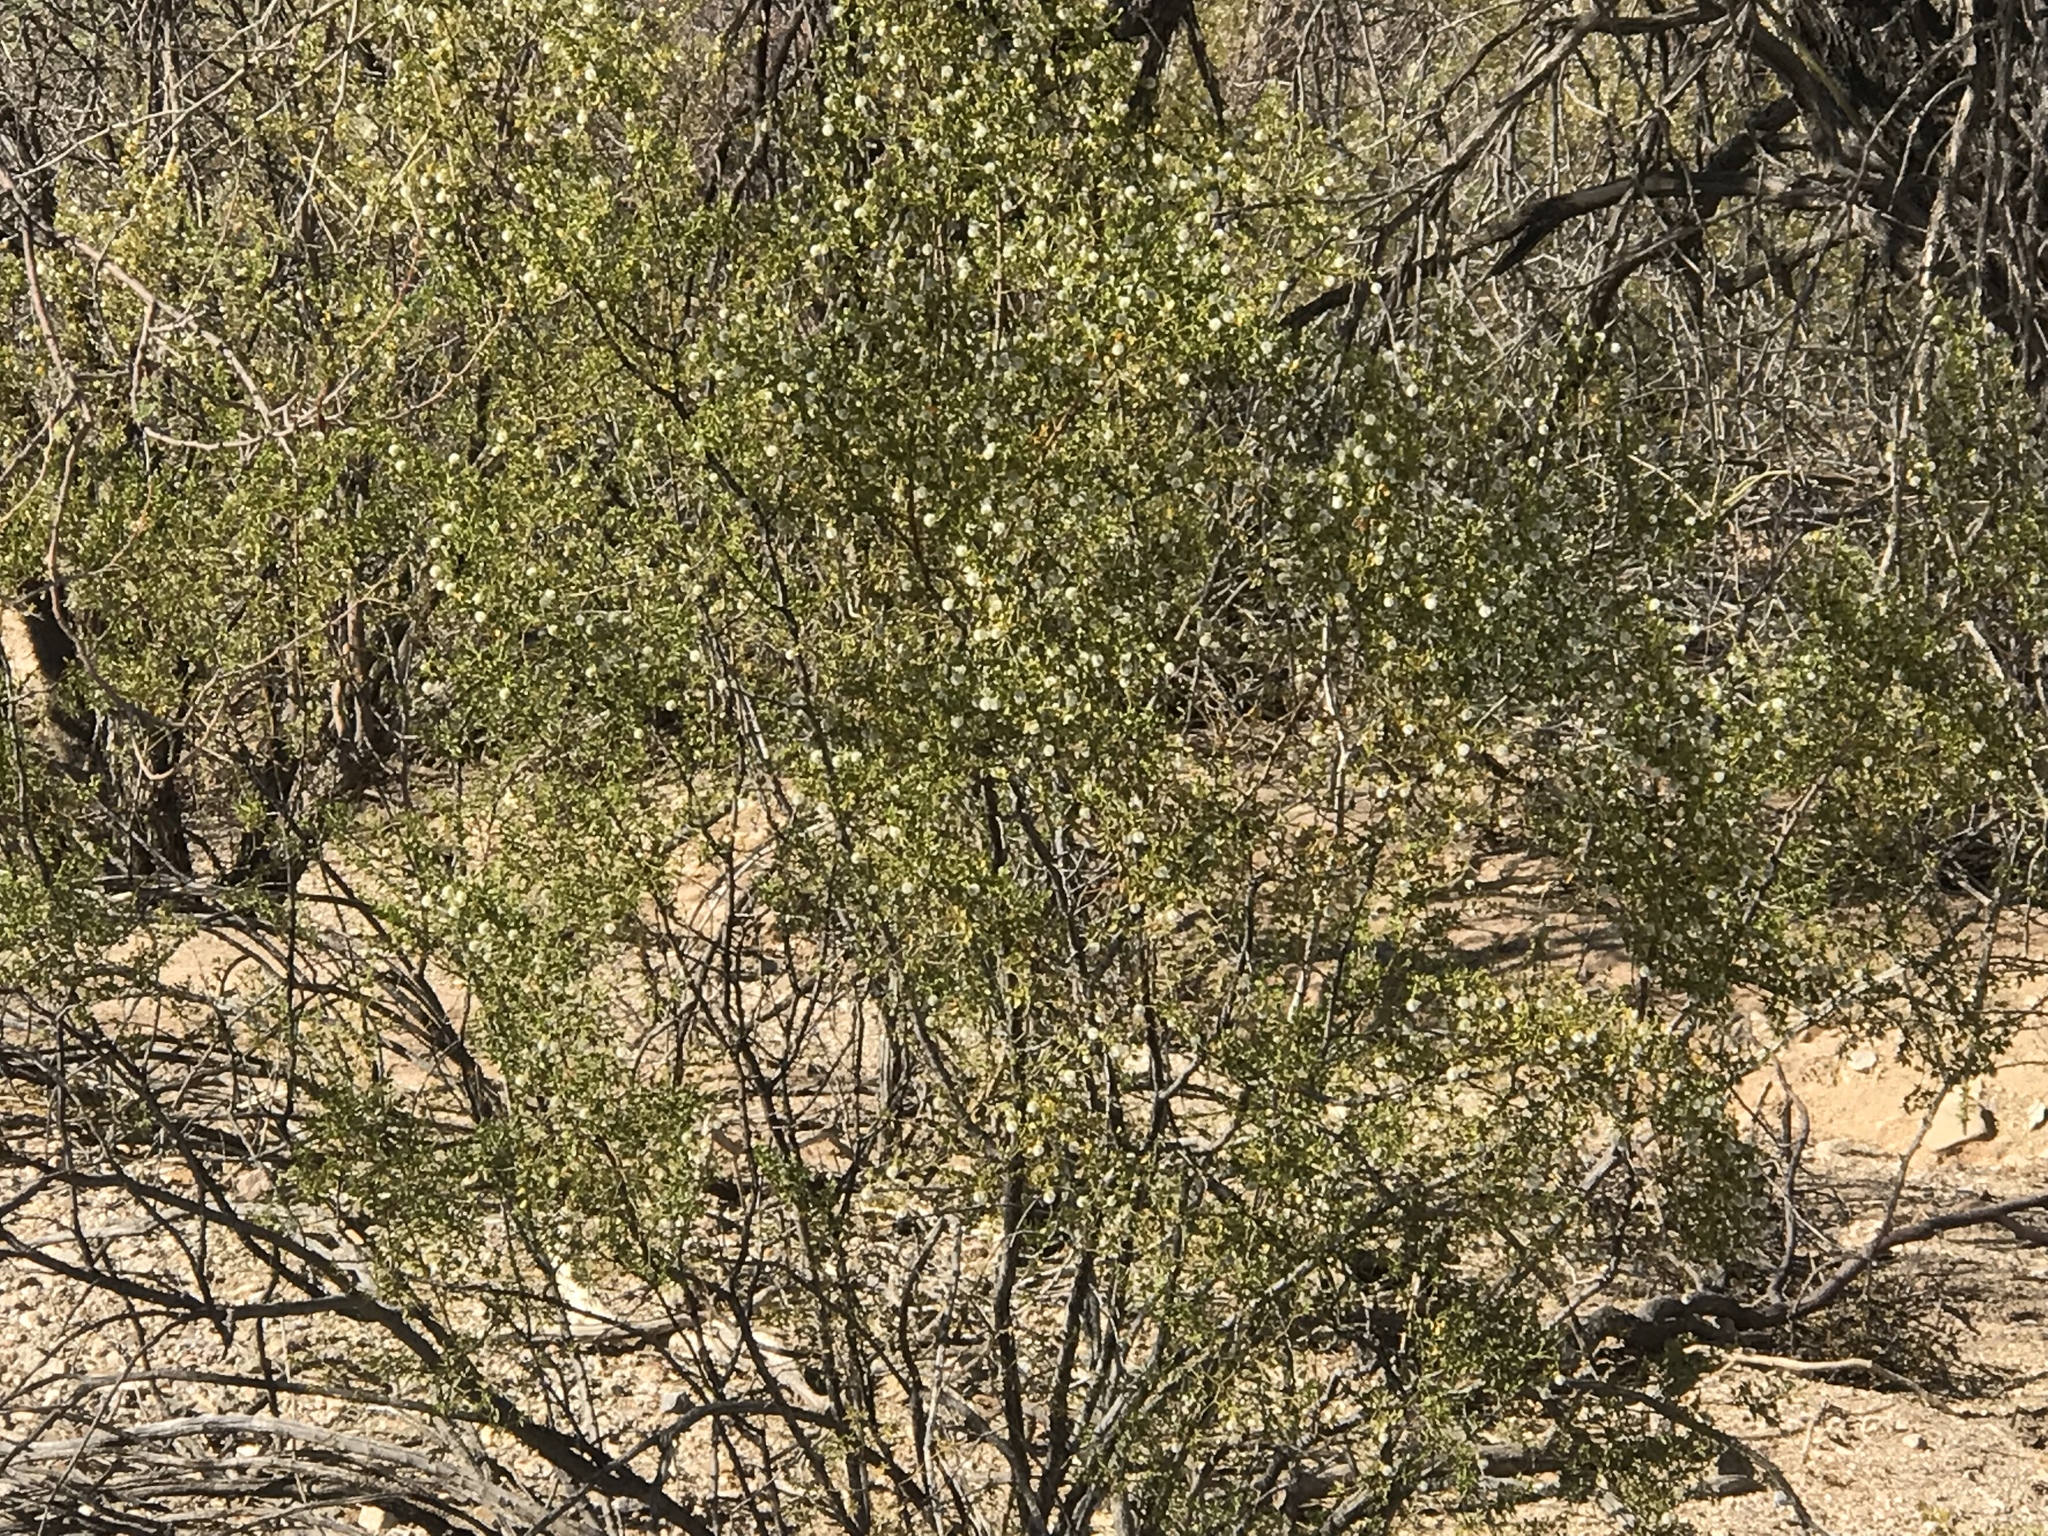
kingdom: Plantae
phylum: Tracheophyta
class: Magnoliopsida
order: Zygophyllales
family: Zygophyllaceae
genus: Larrea
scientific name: Larrea tridentata
